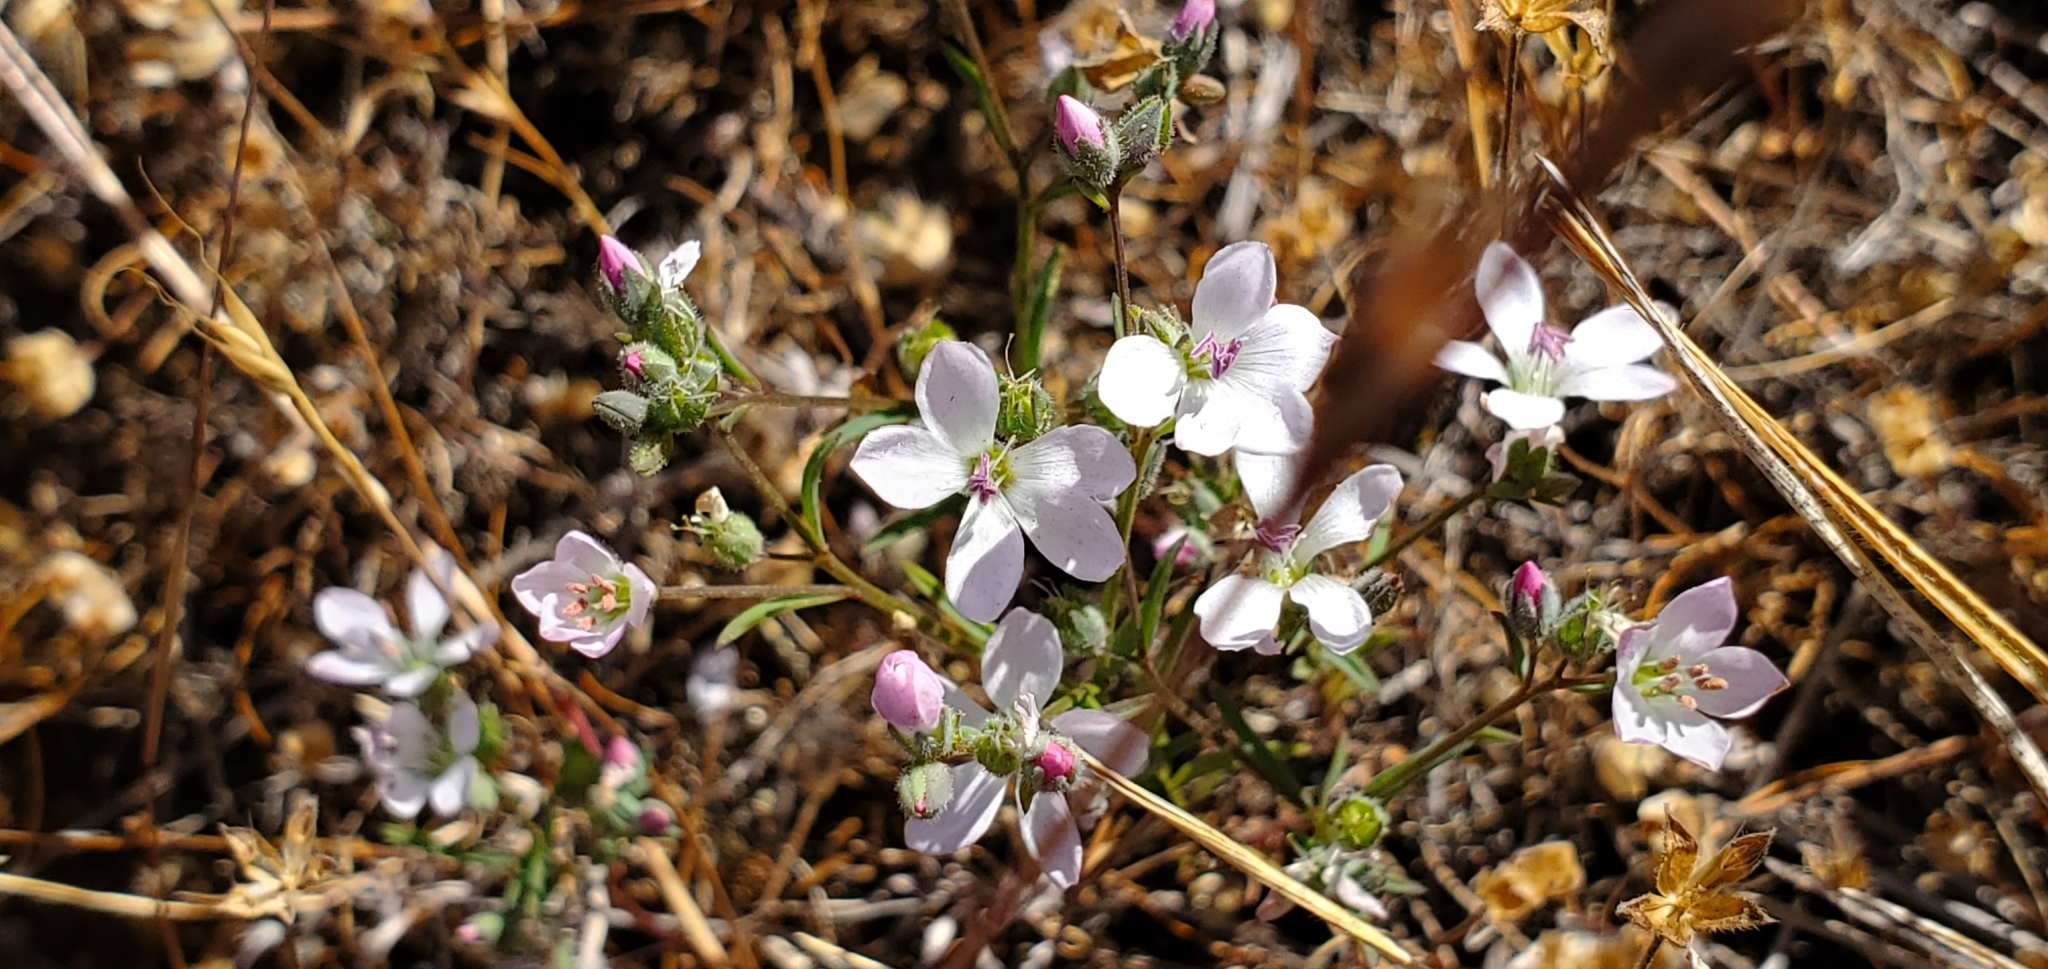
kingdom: Plantae
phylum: Tracheophyta
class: Magnoliopsida
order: Malpighiales
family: Linaceae
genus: Hesperolinon
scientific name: Hesperolinon congestum
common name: Marin dwarf-flax
